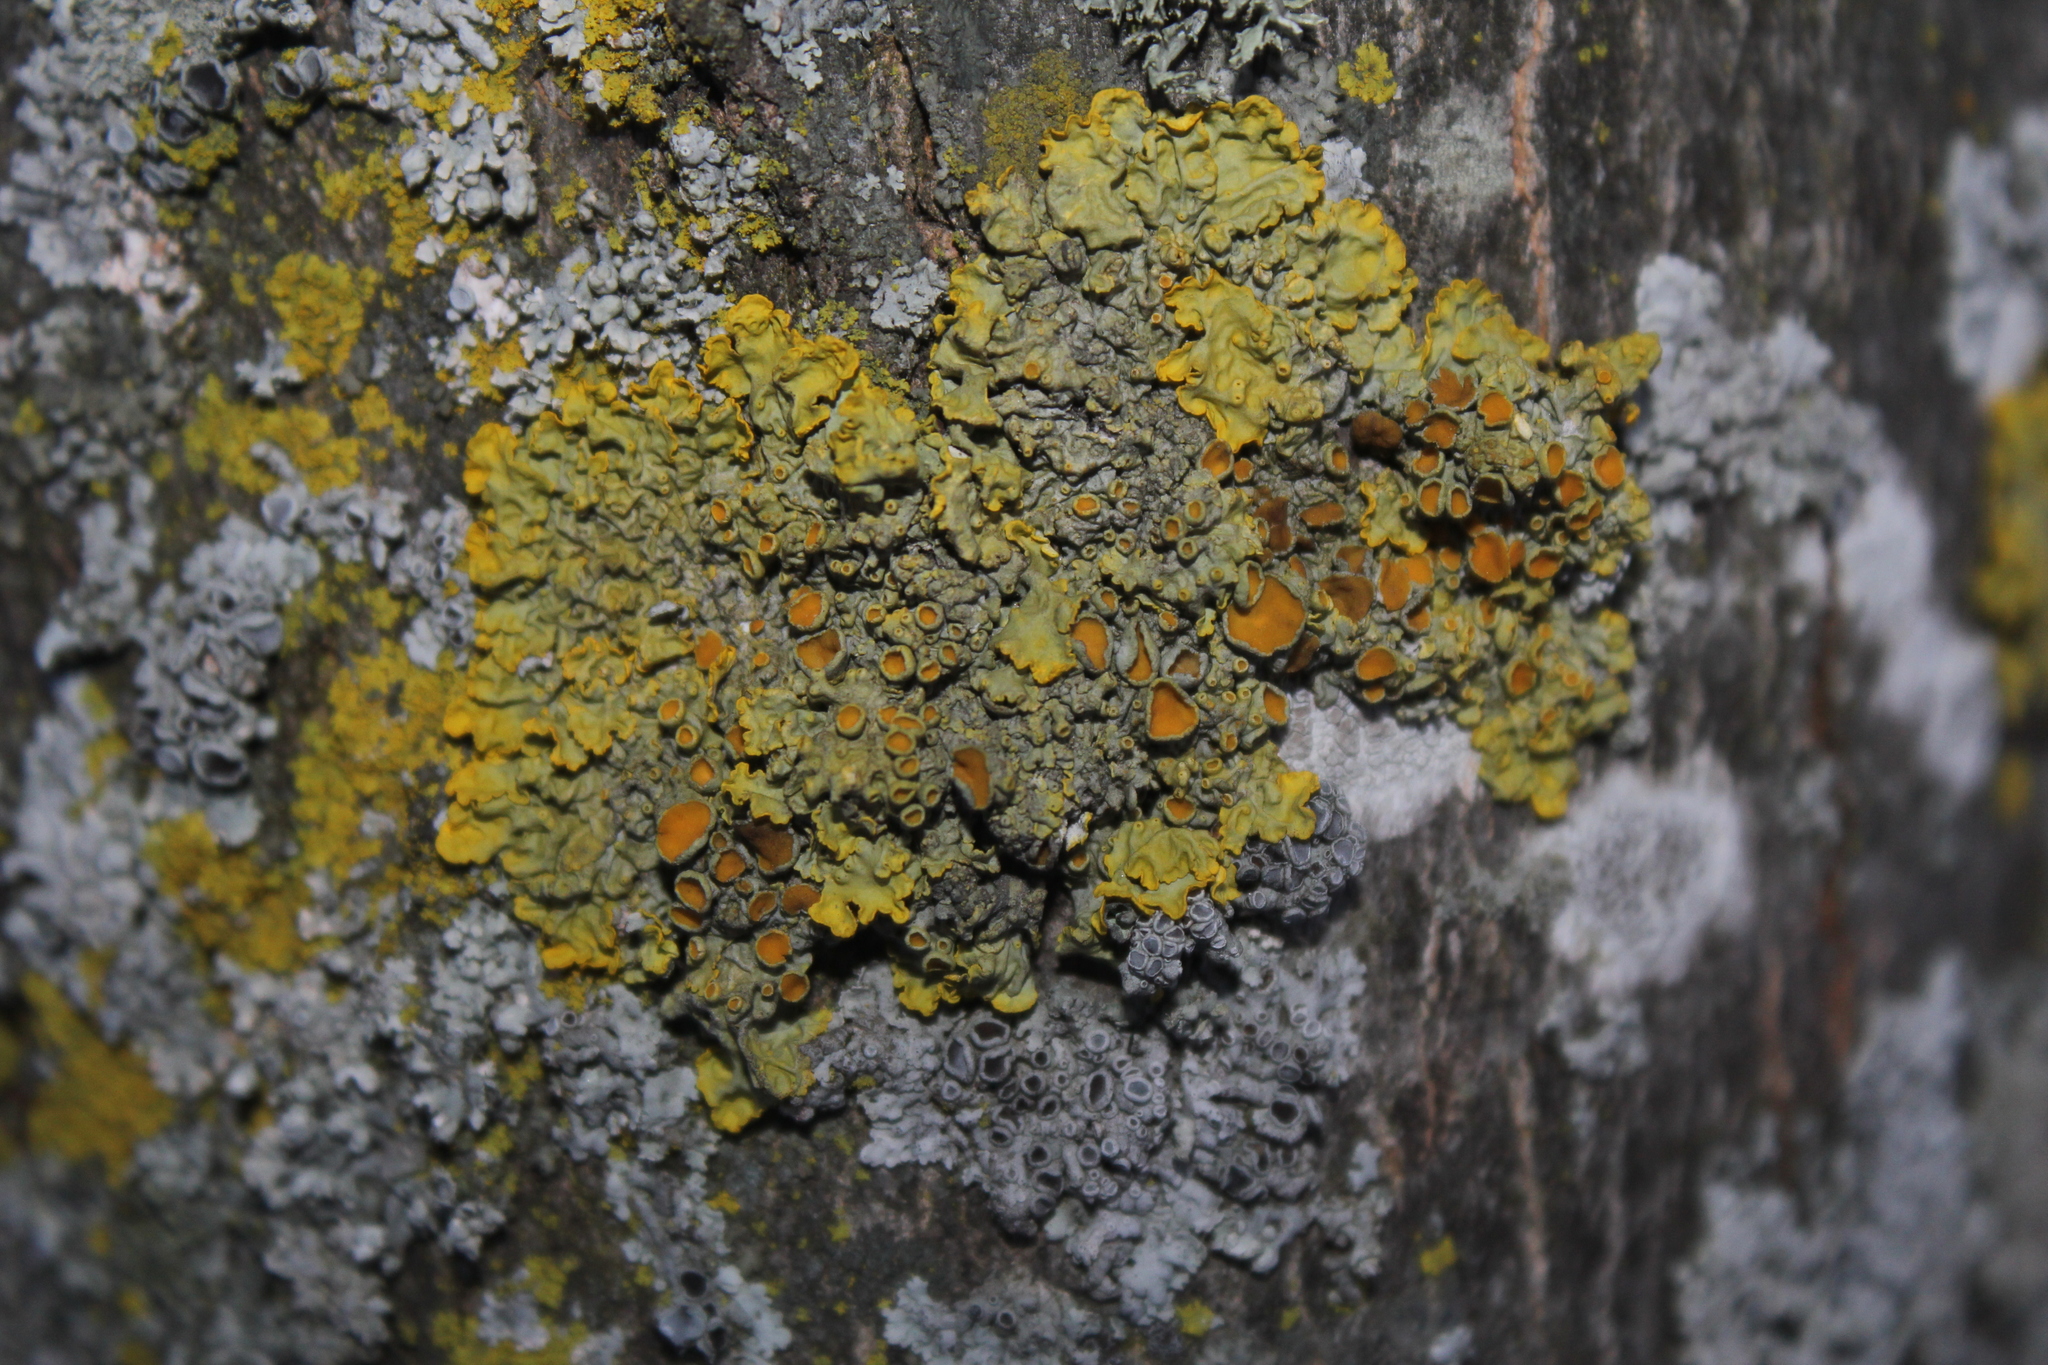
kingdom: Fungi
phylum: Ascomycota
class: Lecanoromycetes
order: Teloschistales
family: Teloschistaceae
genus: Xanthoria
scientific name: Xanthoria parietina
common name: Common orange lichen
